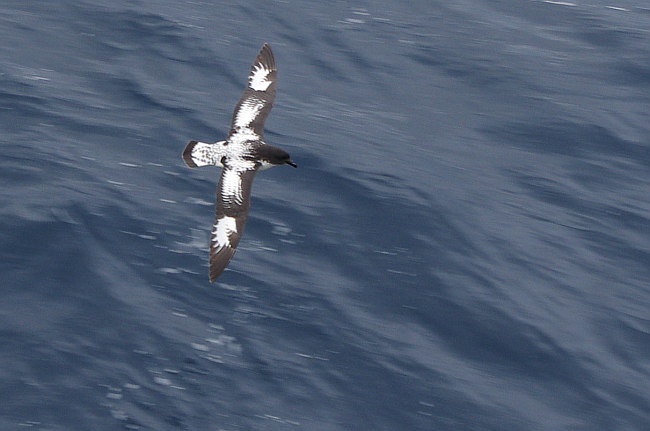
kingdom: Animalia
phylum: Chordata
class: Aves
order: Procellariiformes
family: Procellariidae
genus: Daption
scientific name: Daption capense
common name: Cape petrel
